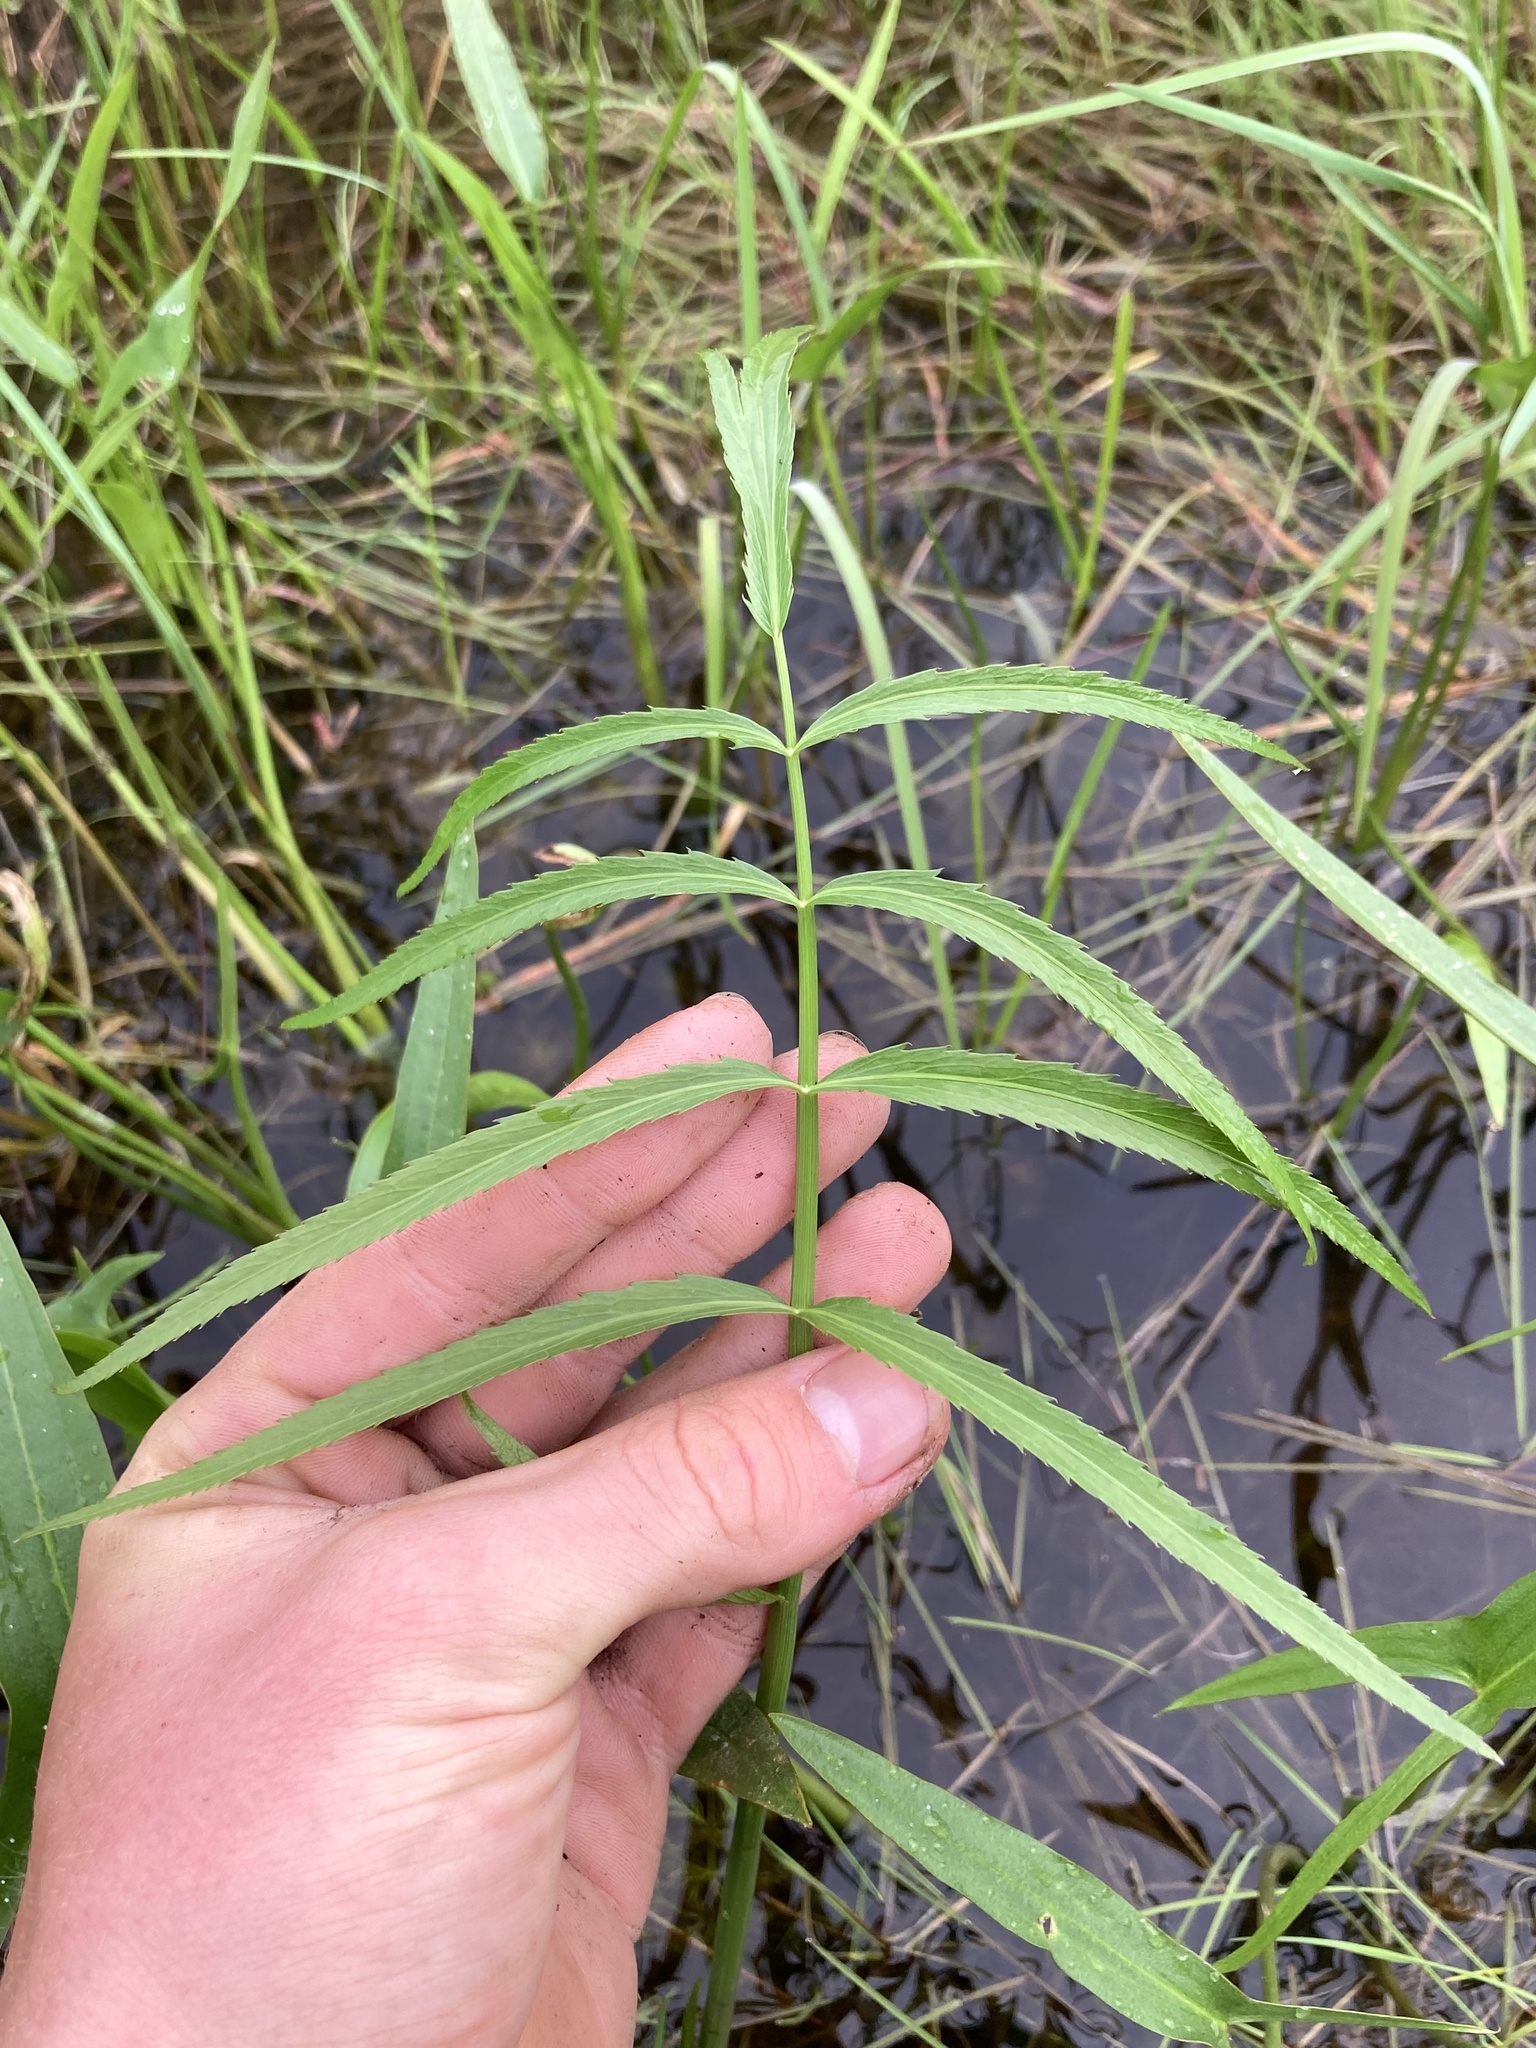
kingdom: Plantae
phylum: Tracheophyta
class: Magnoliopsida
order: Apiales
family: Apiaceae
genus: Sium
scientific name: Sium suave
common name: Hemlock water-parsnip
